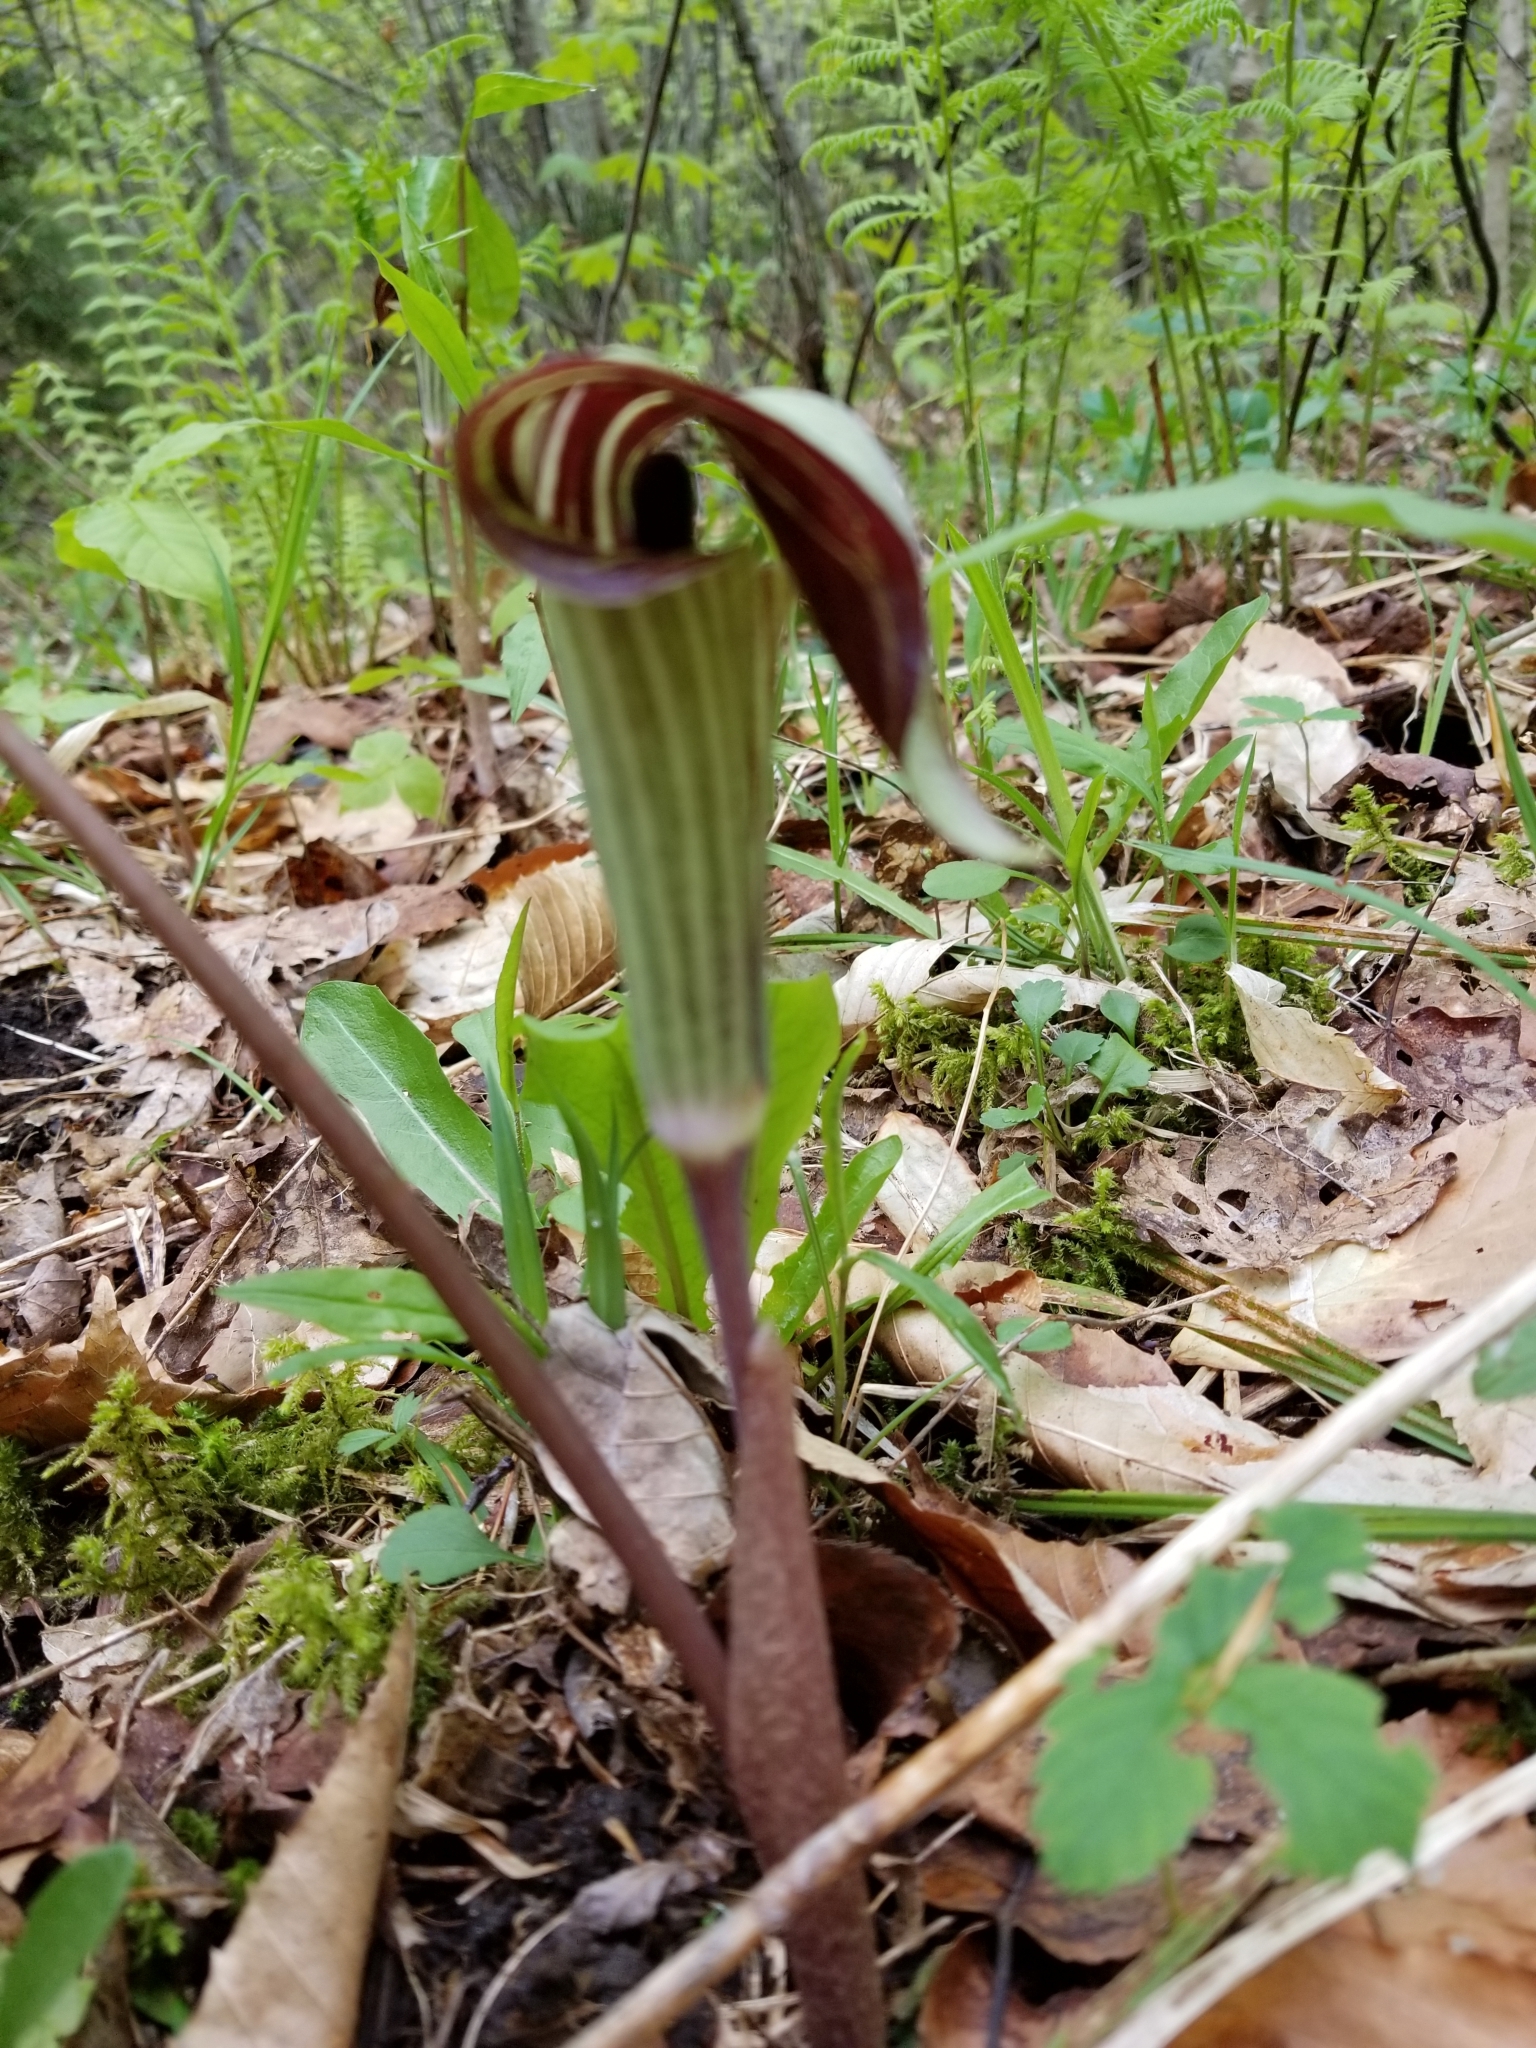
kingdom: Plantae
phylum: Tracheophyta
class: Liliopsida
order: Alismatales
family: Araceae
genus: Arisaema
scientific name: Arisaema triphyllum
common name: Jack-in-the-pulpit
